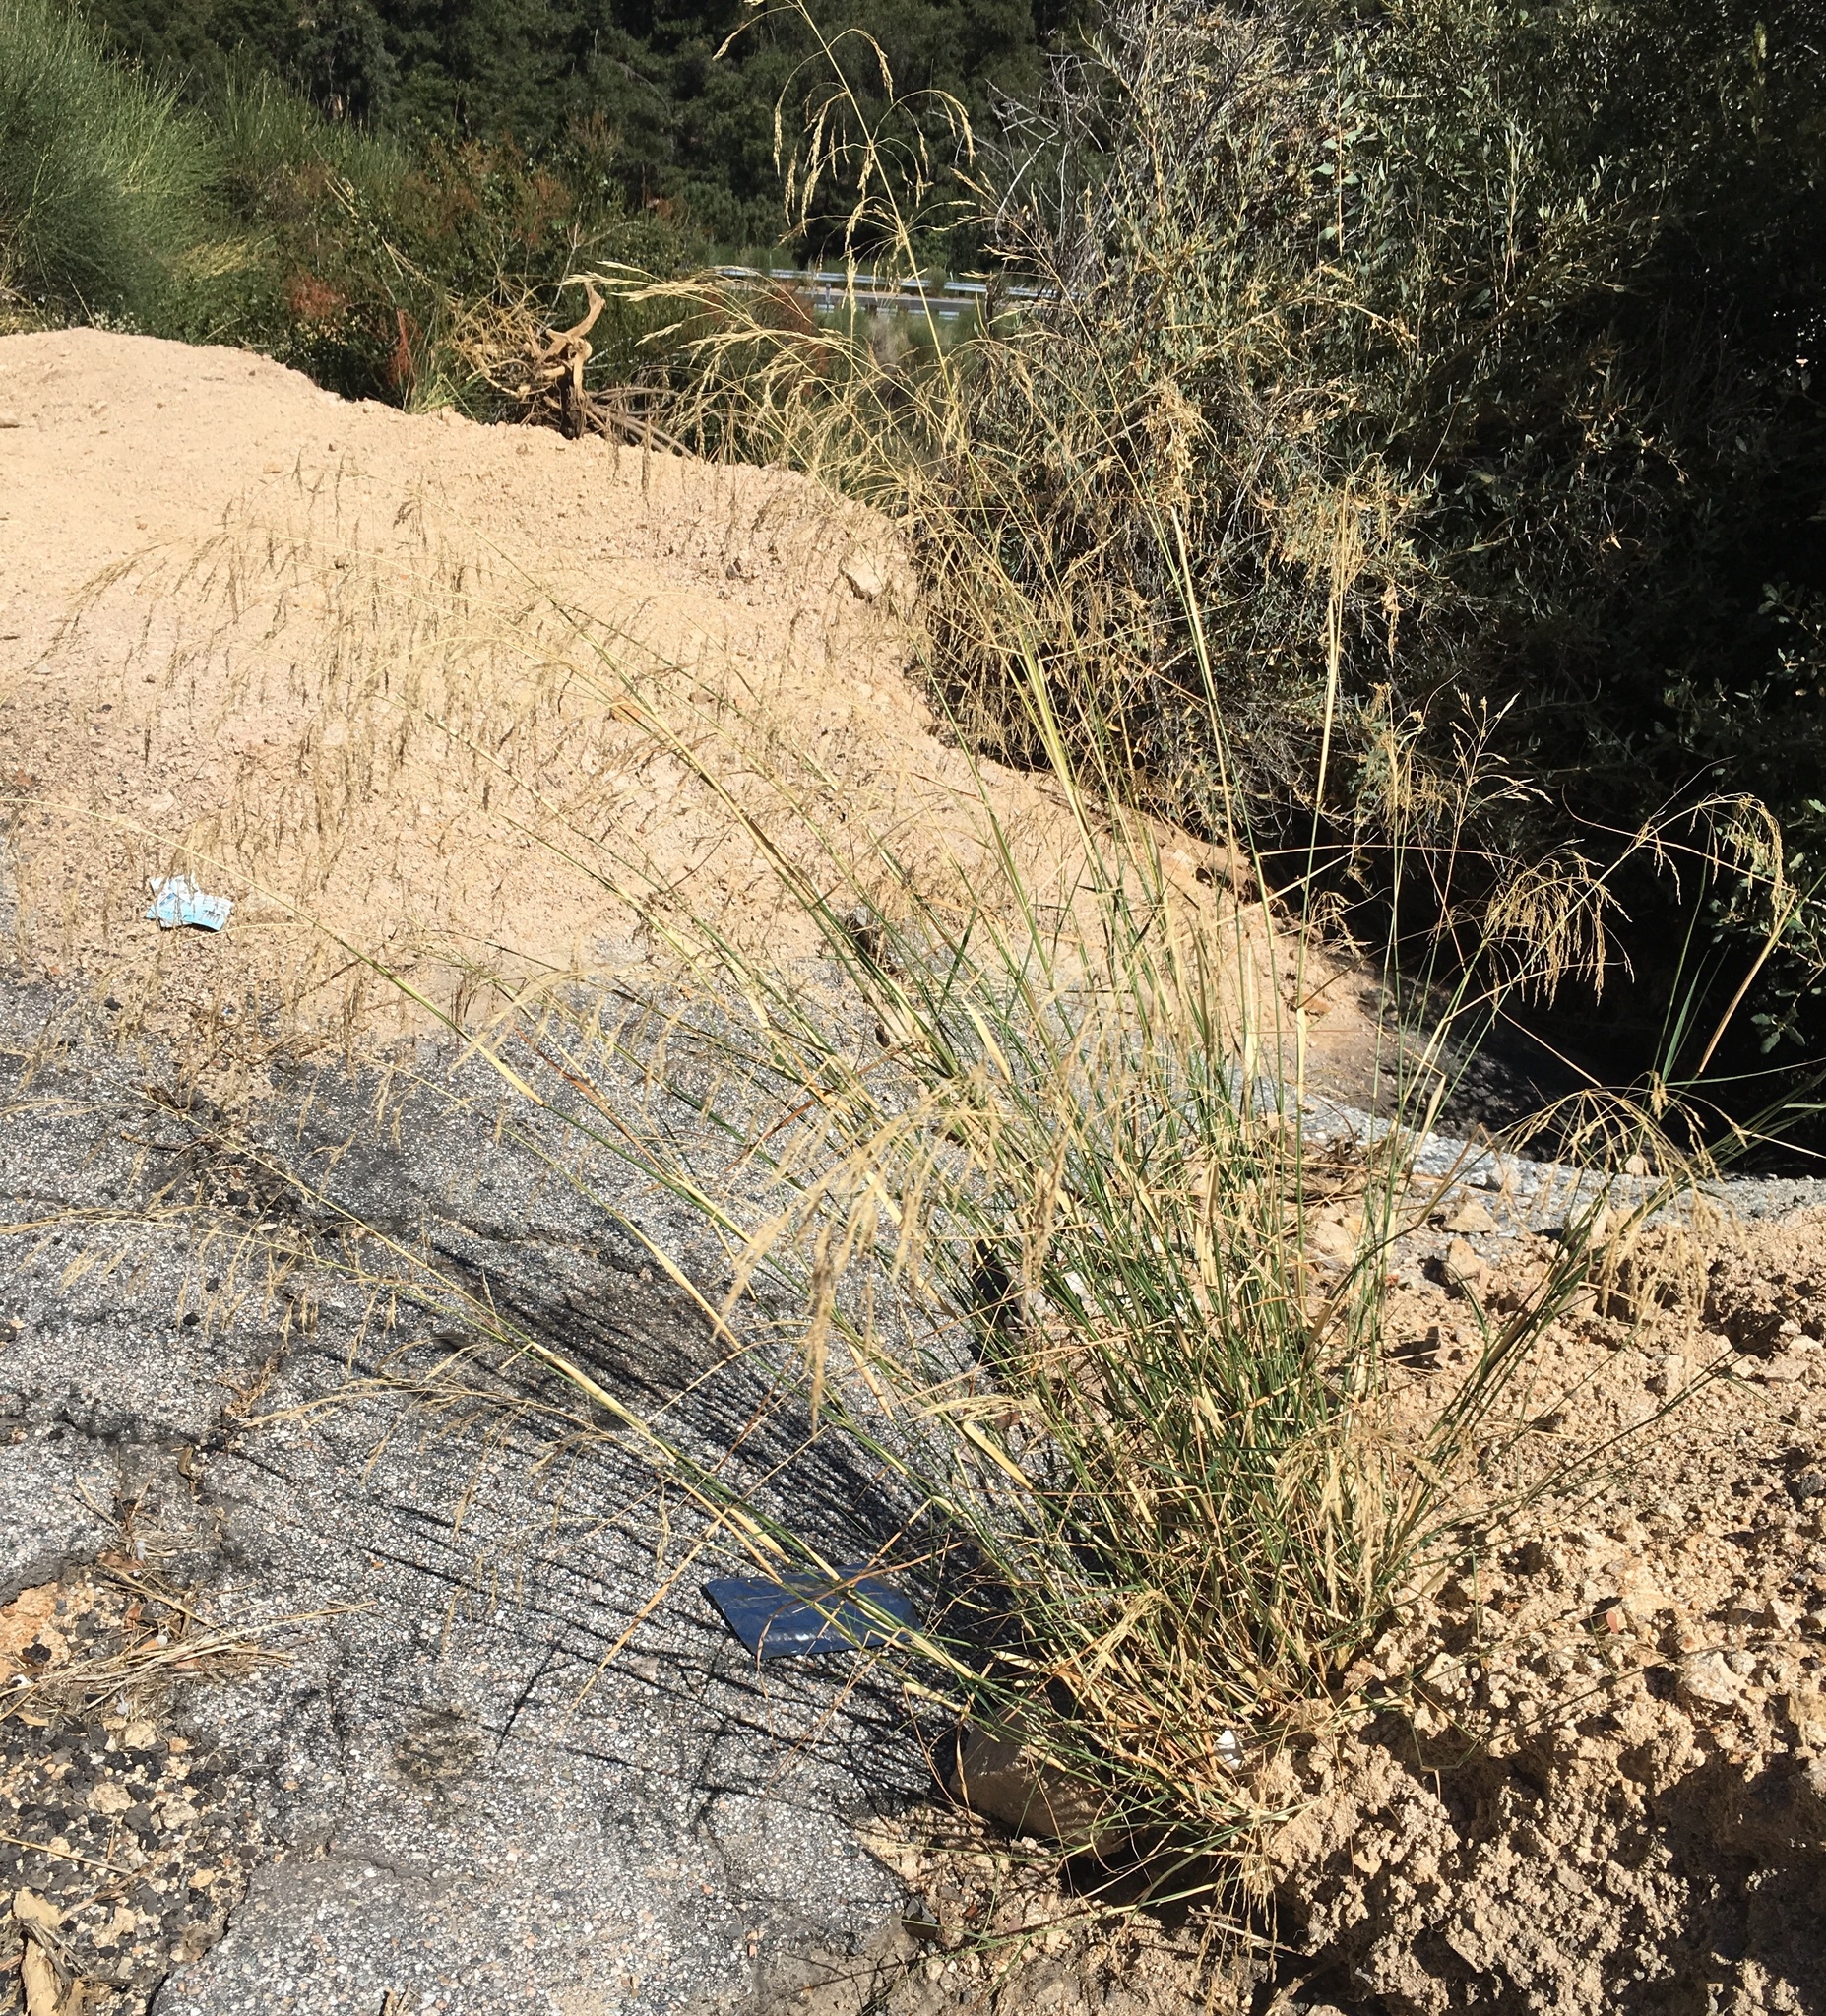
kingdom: Plantae
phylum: Tracheophyta
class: Liliopsida
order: Poales
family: Poaceae
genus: Oloptum
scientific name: Oloptum miliaceum
